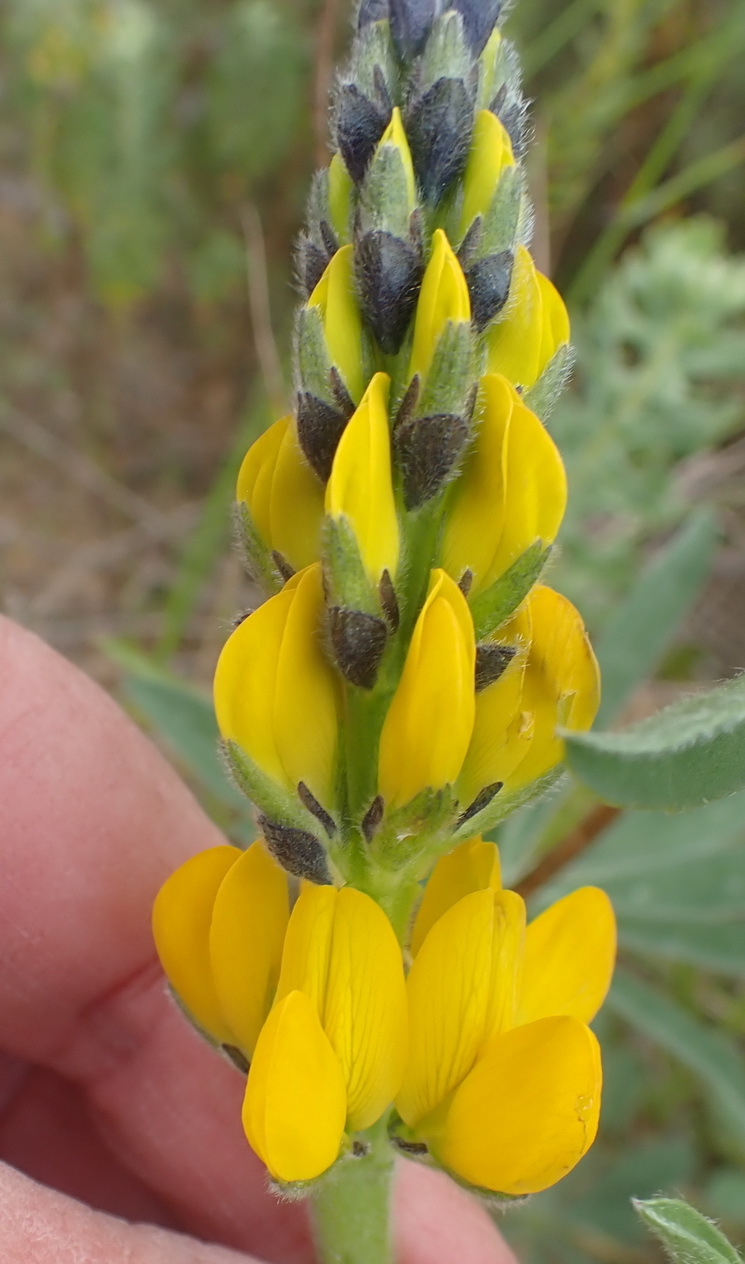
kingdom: Plantae
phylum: Tracheophyta
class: Magnoliopsida
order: Fabales
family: Fabaceae
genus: Lupinus
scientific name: Lupinus luteus
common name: European yellow lupine
